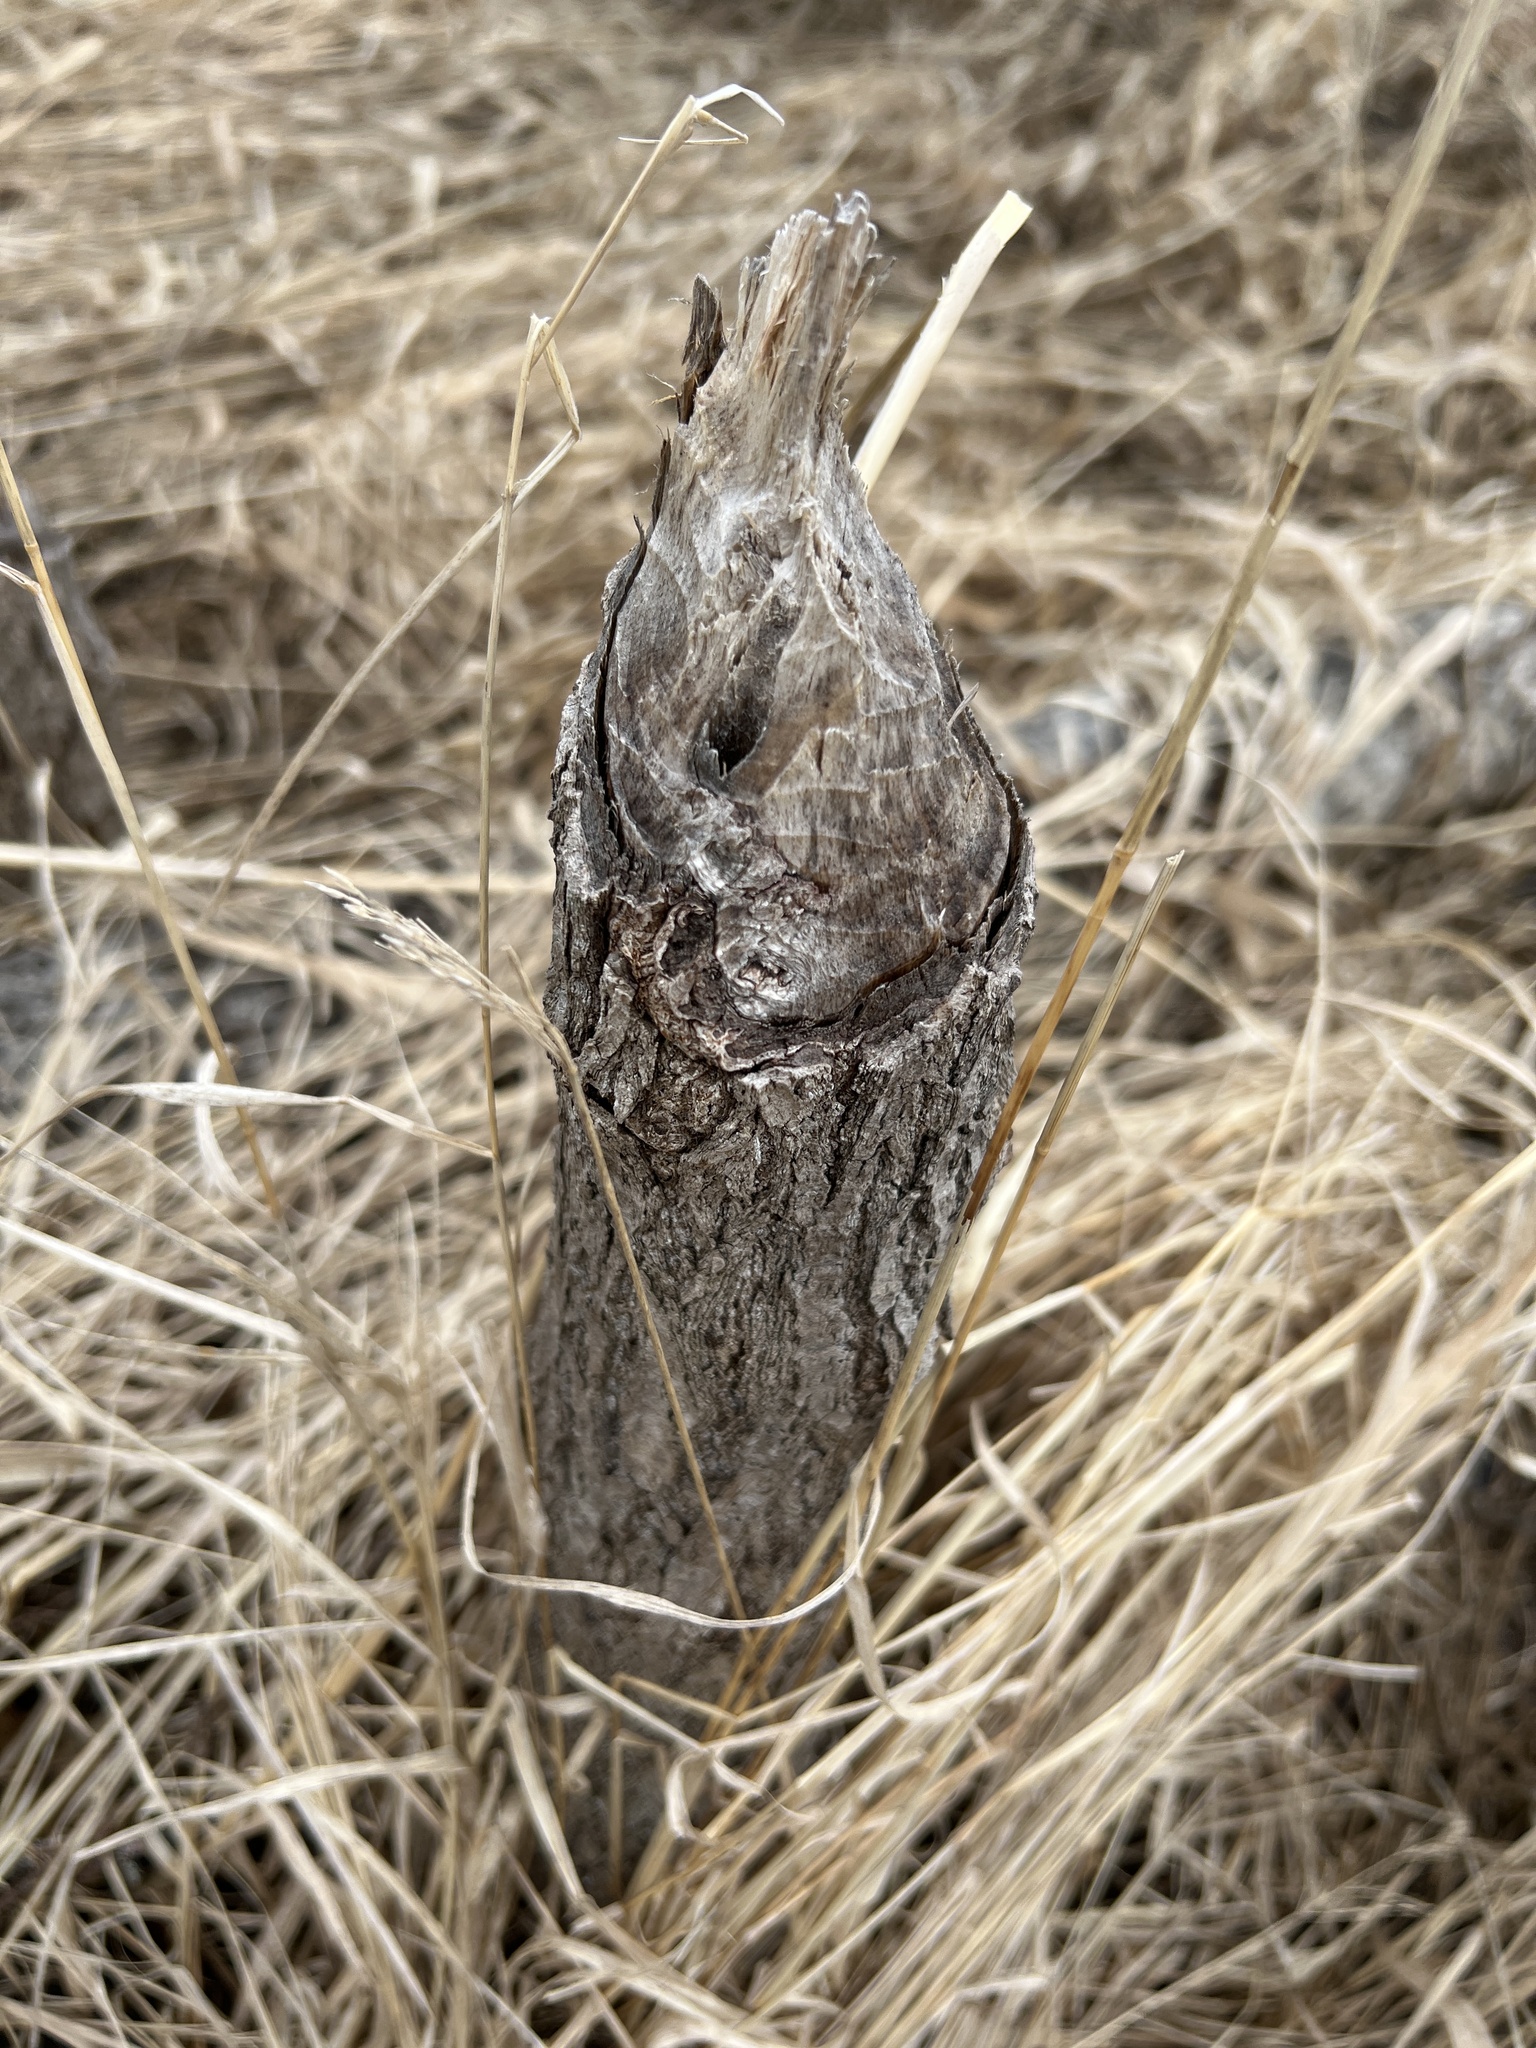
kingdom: Animalia
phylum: Chordata
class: Mammalia
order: Rodentia
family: Castoridae
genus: Castor
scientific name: Castor canadensis
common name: American beaver
